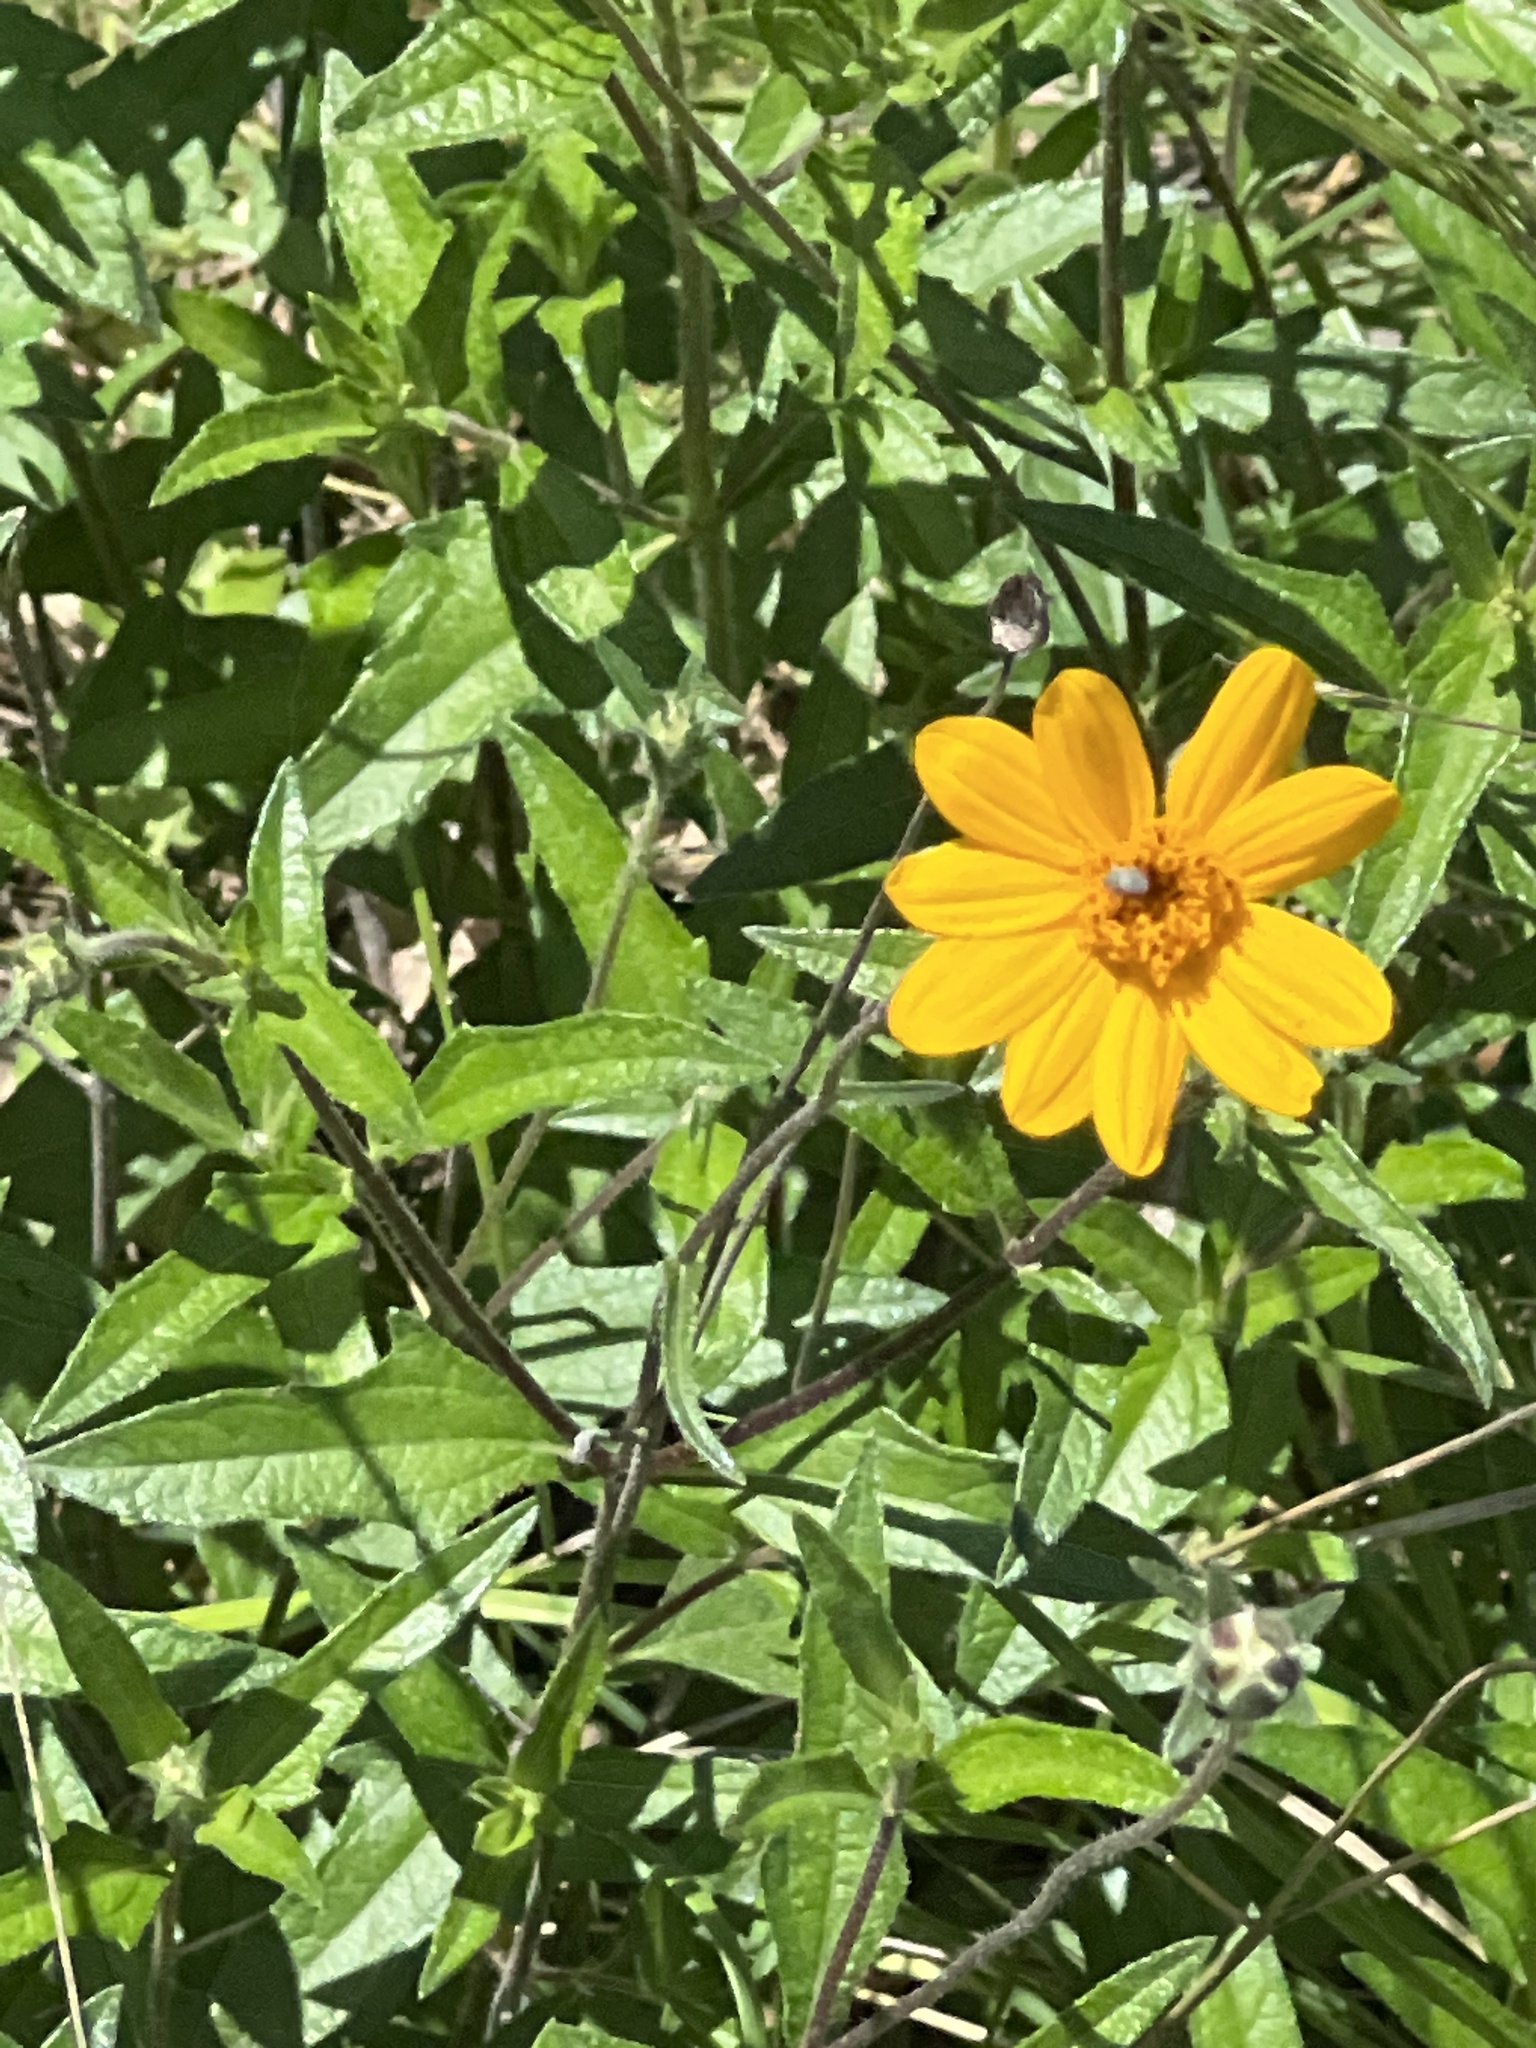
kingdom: Plantae
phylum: Tracheophyta
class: Magnoliopsida
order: Asterales
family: Asteraceae
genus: Wedelia
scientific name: Wedelia acapulcensis
